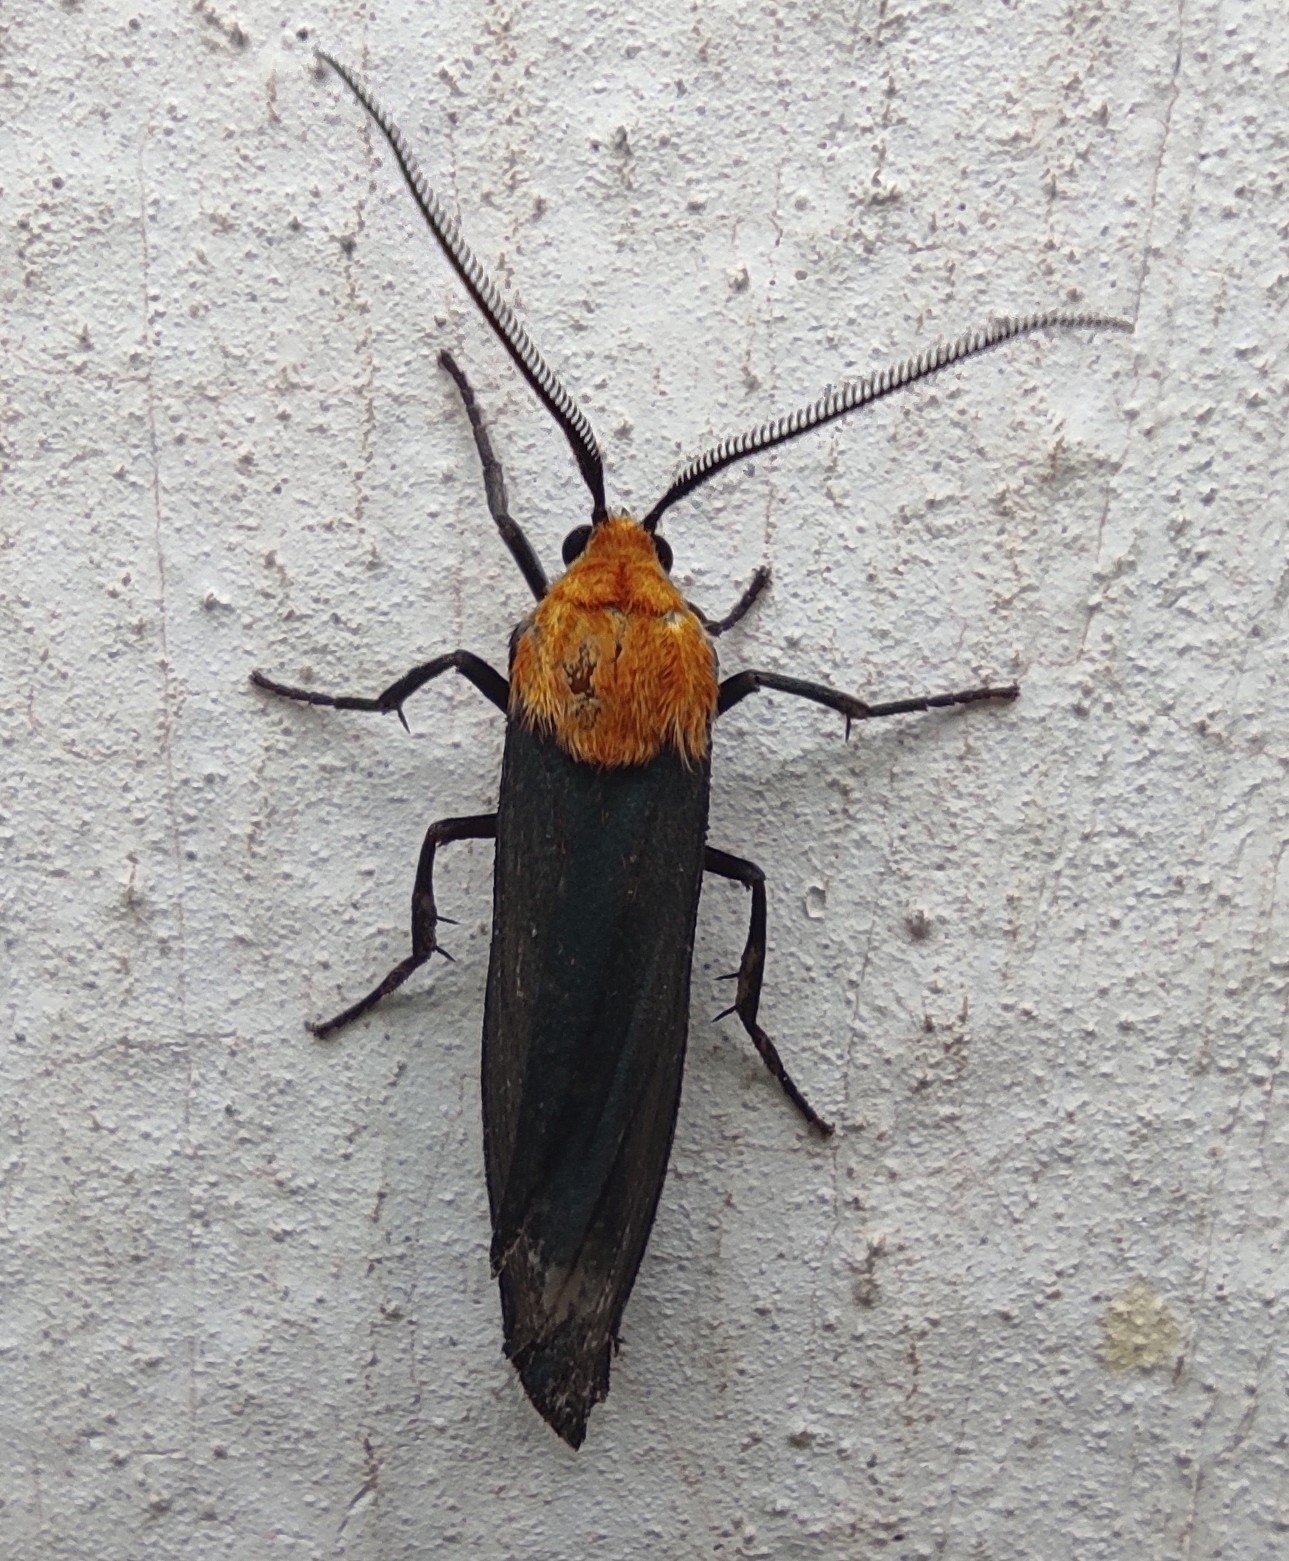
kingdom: Animalia
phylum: Arthropoda
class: Insecta
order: Lepidoptera
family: Erebidae
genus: Apistosia
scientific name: Apistosia judas
